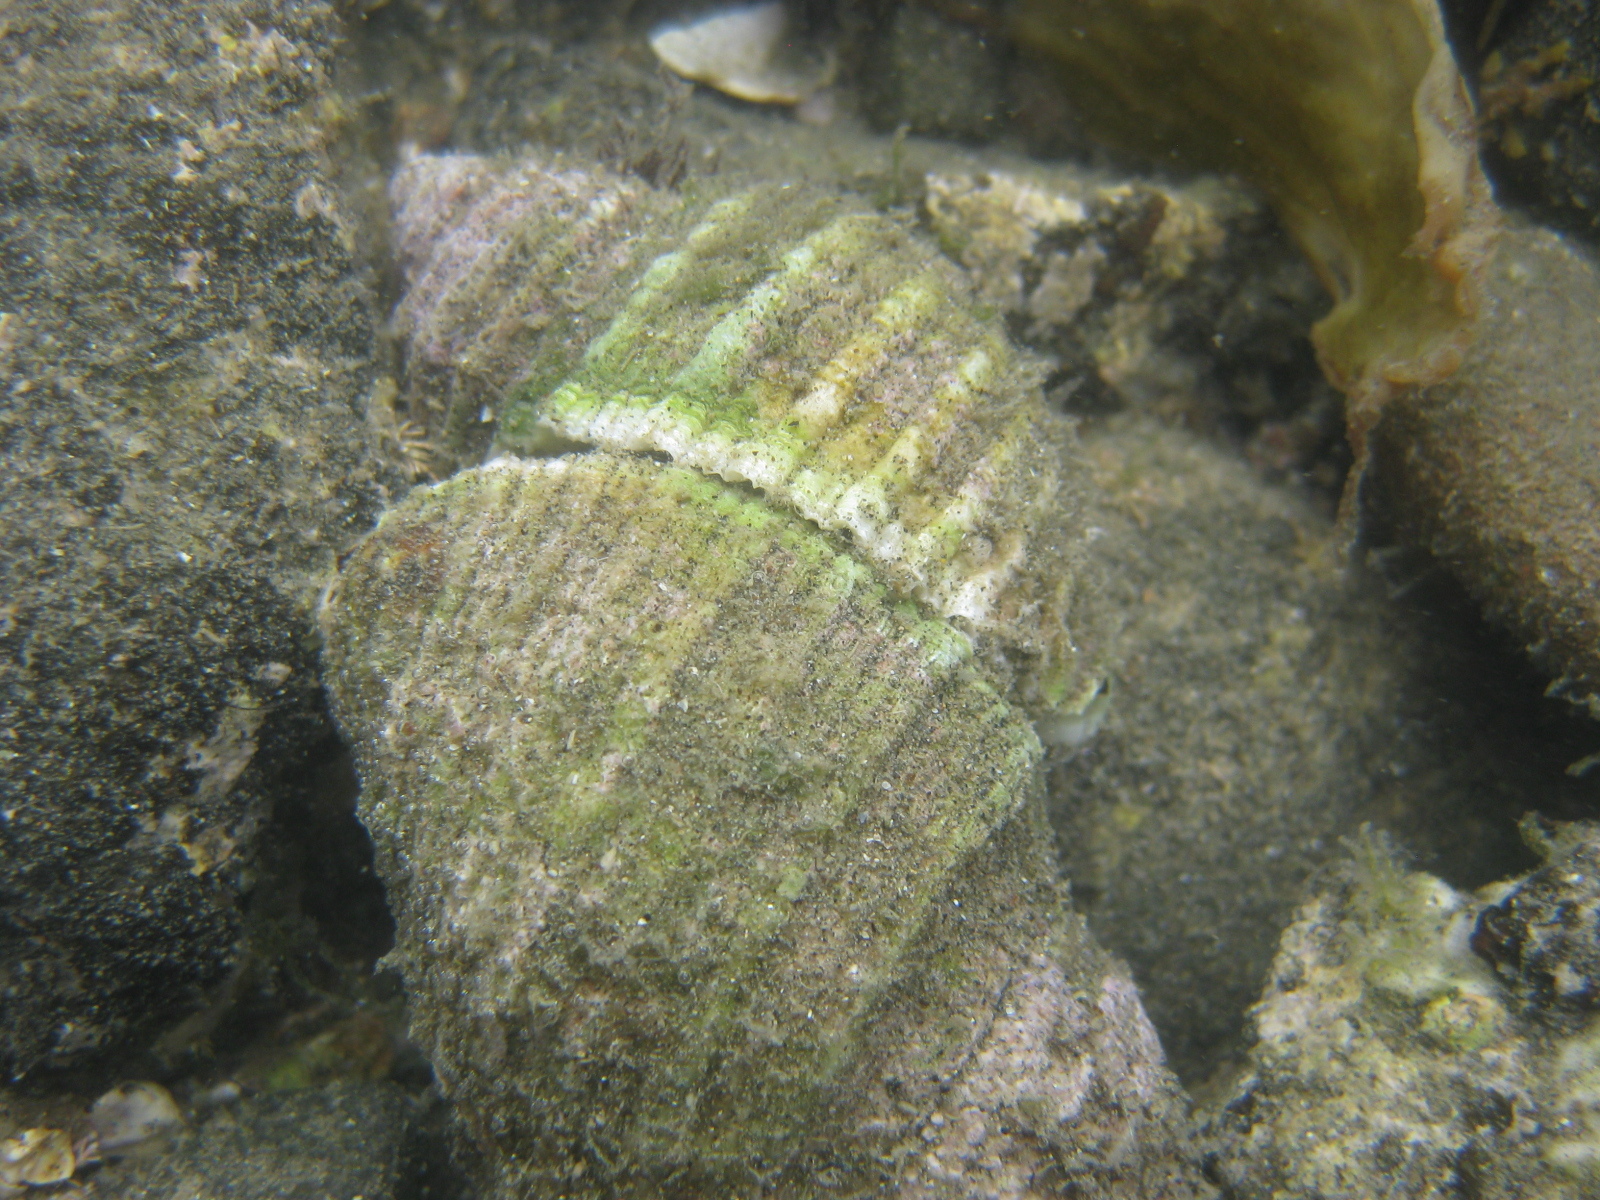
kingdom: Animalia
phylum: Mollusca
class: Gastropoda
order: Neogastropoda
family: Muricidae
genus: Dicathais
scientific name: Dicathais orbita
